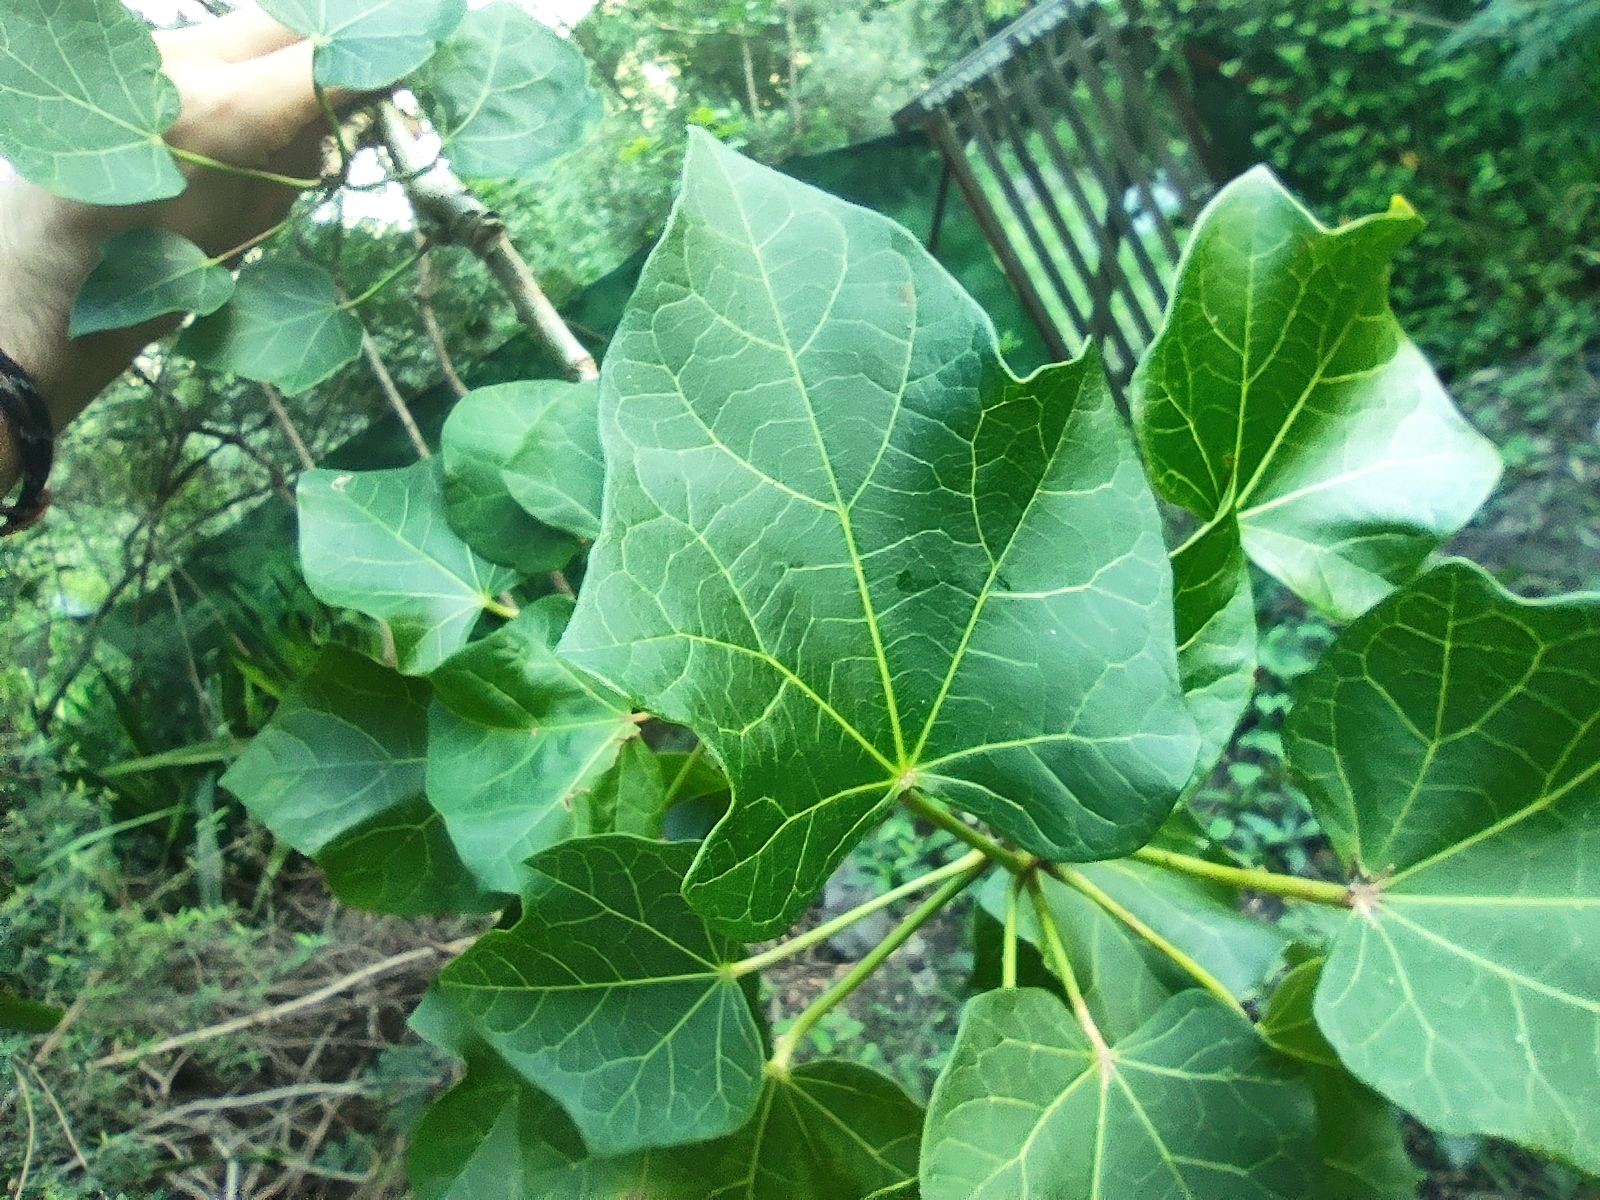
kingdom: Plantae
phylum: Tracheophyta
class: Magnoliopsida
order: Malpighiales
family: Euphorbiaceae
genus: Jatropha
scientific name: Jatropha curcas
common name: Barbados nut
